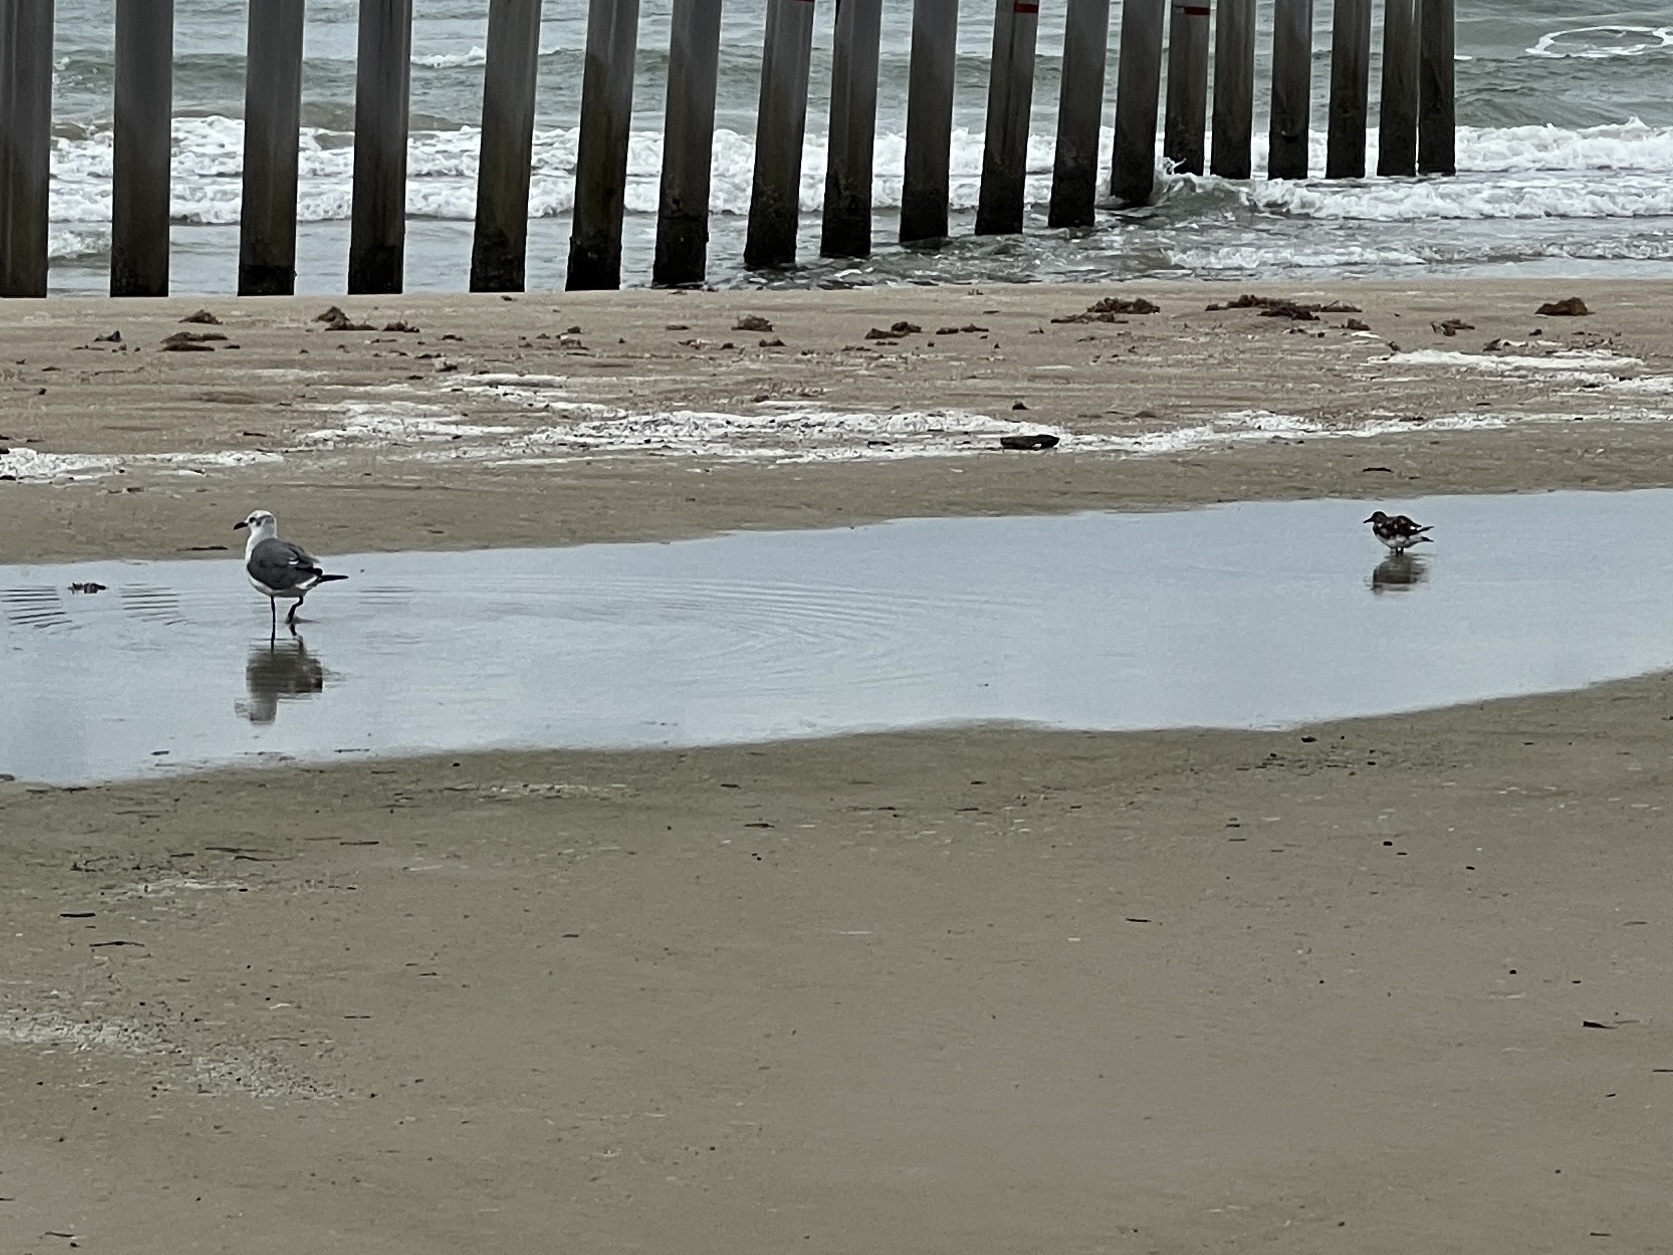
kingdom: Animalia
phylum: Chordata
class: Aves
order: Charadriiformes
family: Laridae
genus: Leucophaeus
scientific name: Leucophaeus atricilla
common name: Laughing gull
